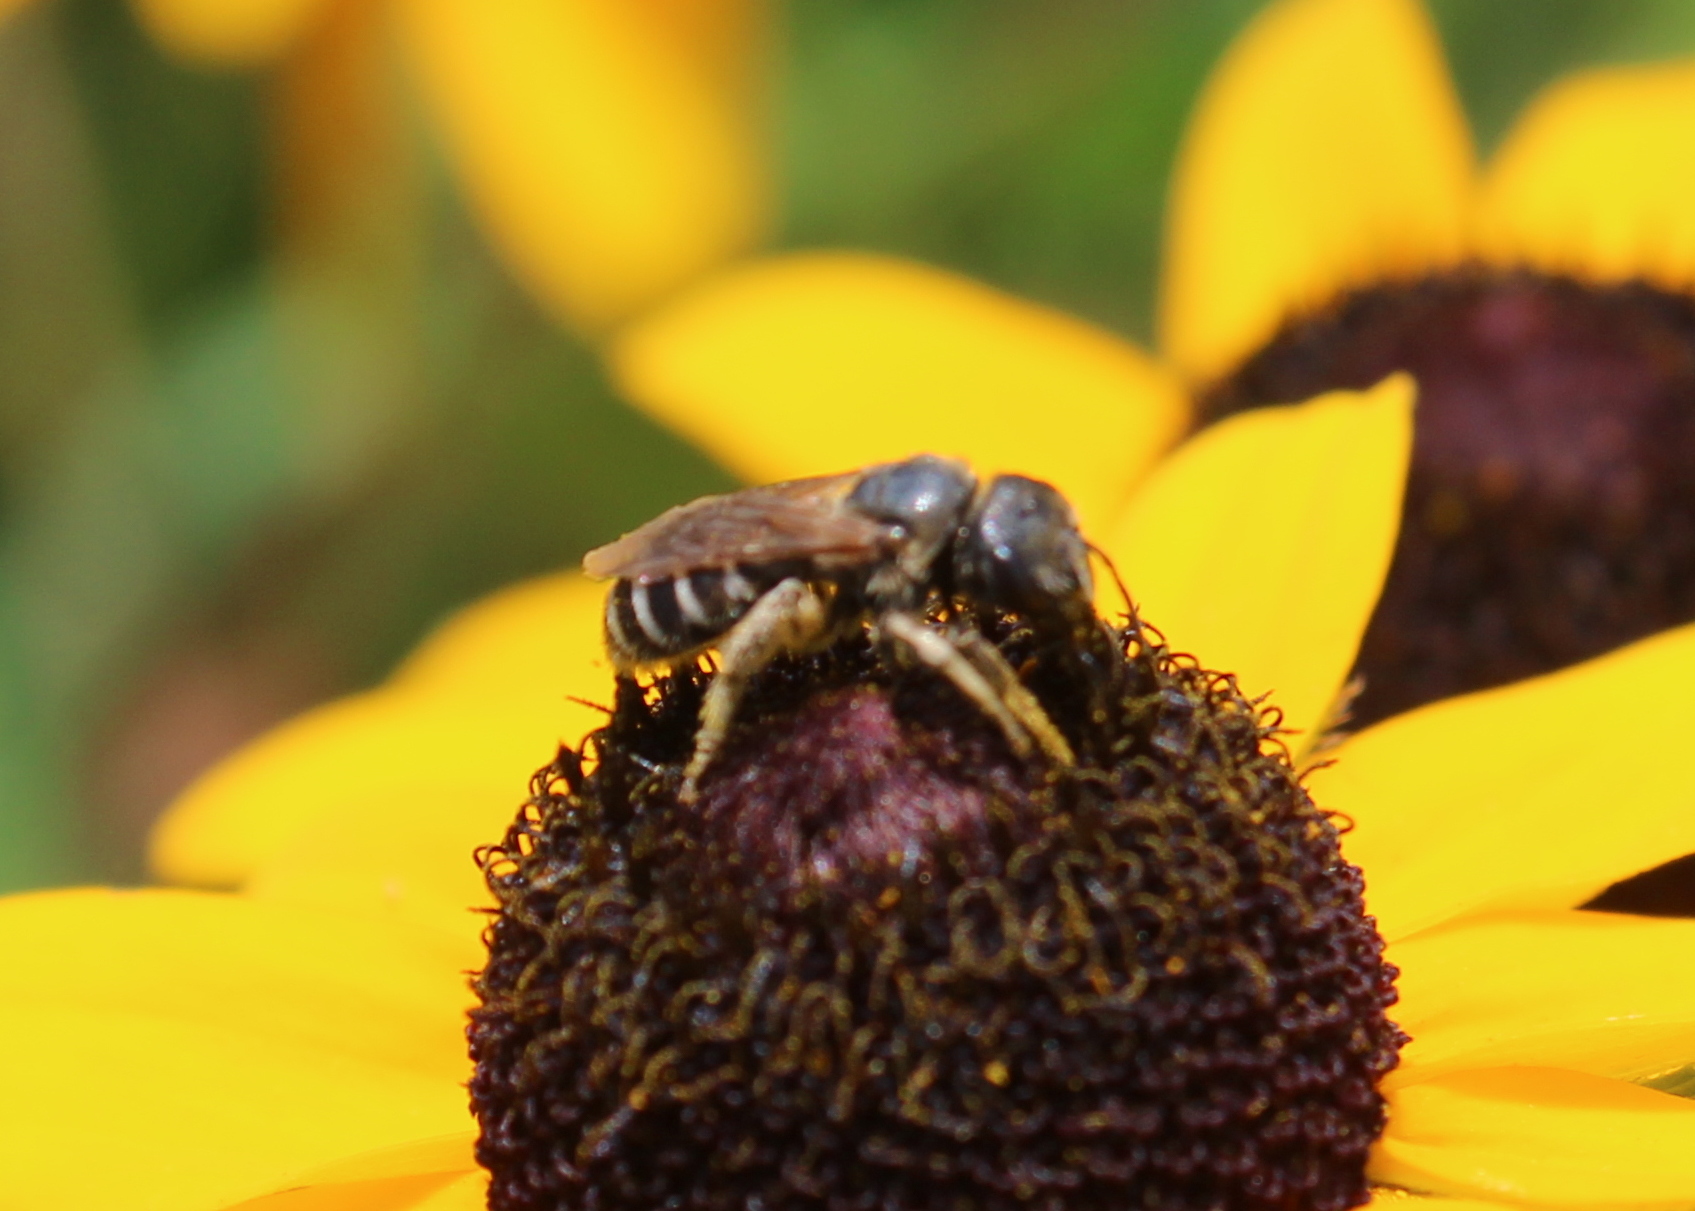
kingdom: Animalia
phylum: Arthropoda
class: Insecta
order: Hymenoptera
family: Halictidae
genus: Halictus
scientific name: Halictus ligatus
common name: Ligated furrow bee
